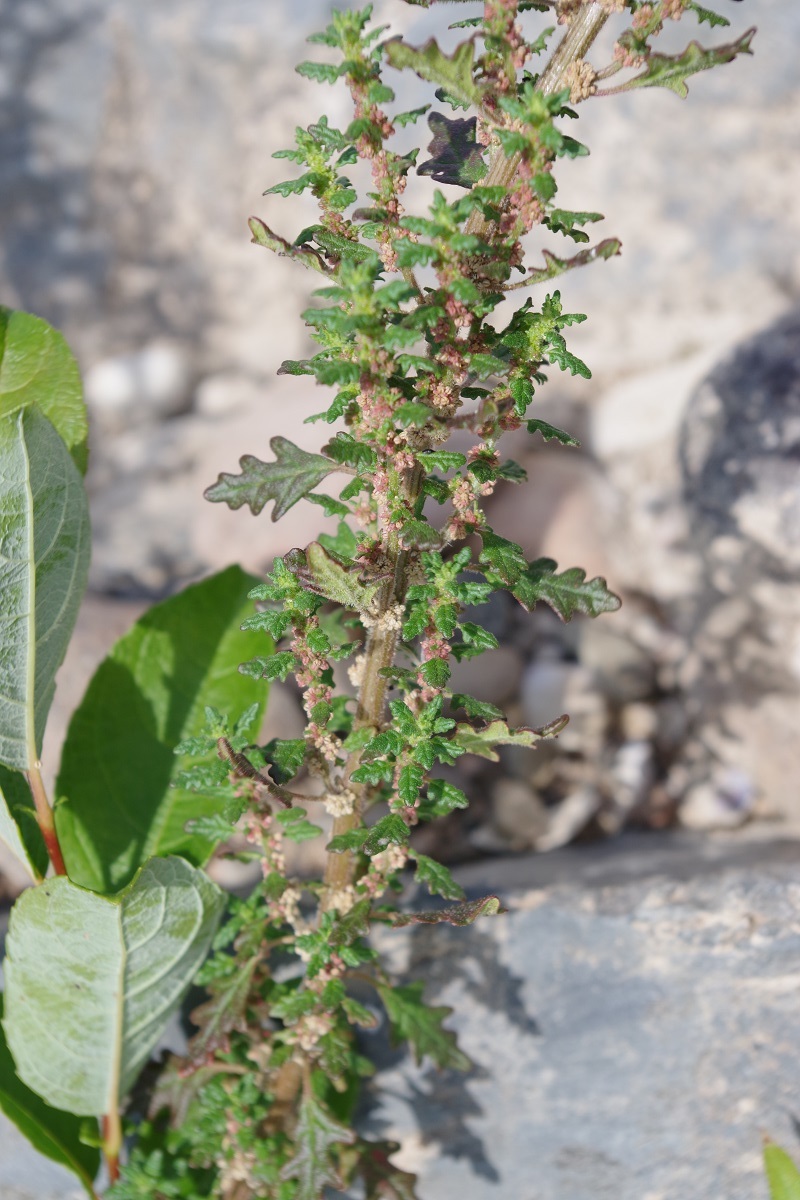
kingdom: Plantae
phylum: Tracheophyta
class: Magnoliopsida
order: Caryophyllales
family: Amaranthaceae
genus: Dysphania
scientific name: Dysphania pumilio
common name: Clammy goosefoot
